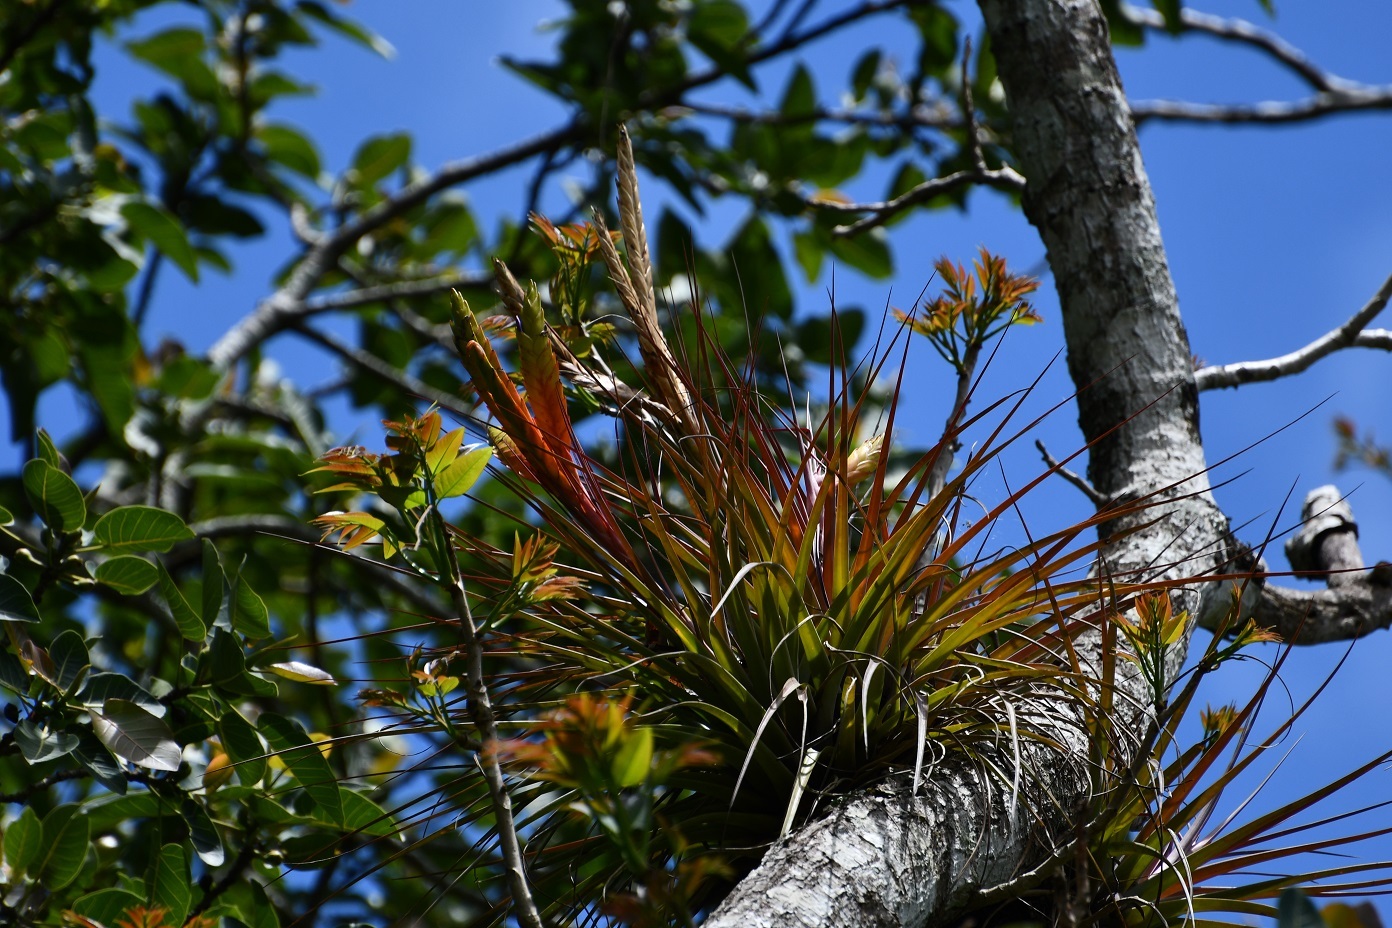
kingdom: Plantae
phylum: Tracheophyta
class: Liliopsida
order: Poales
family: Bromeliaceae
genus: Tillandsia
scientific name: Tillandsia zoquensis
